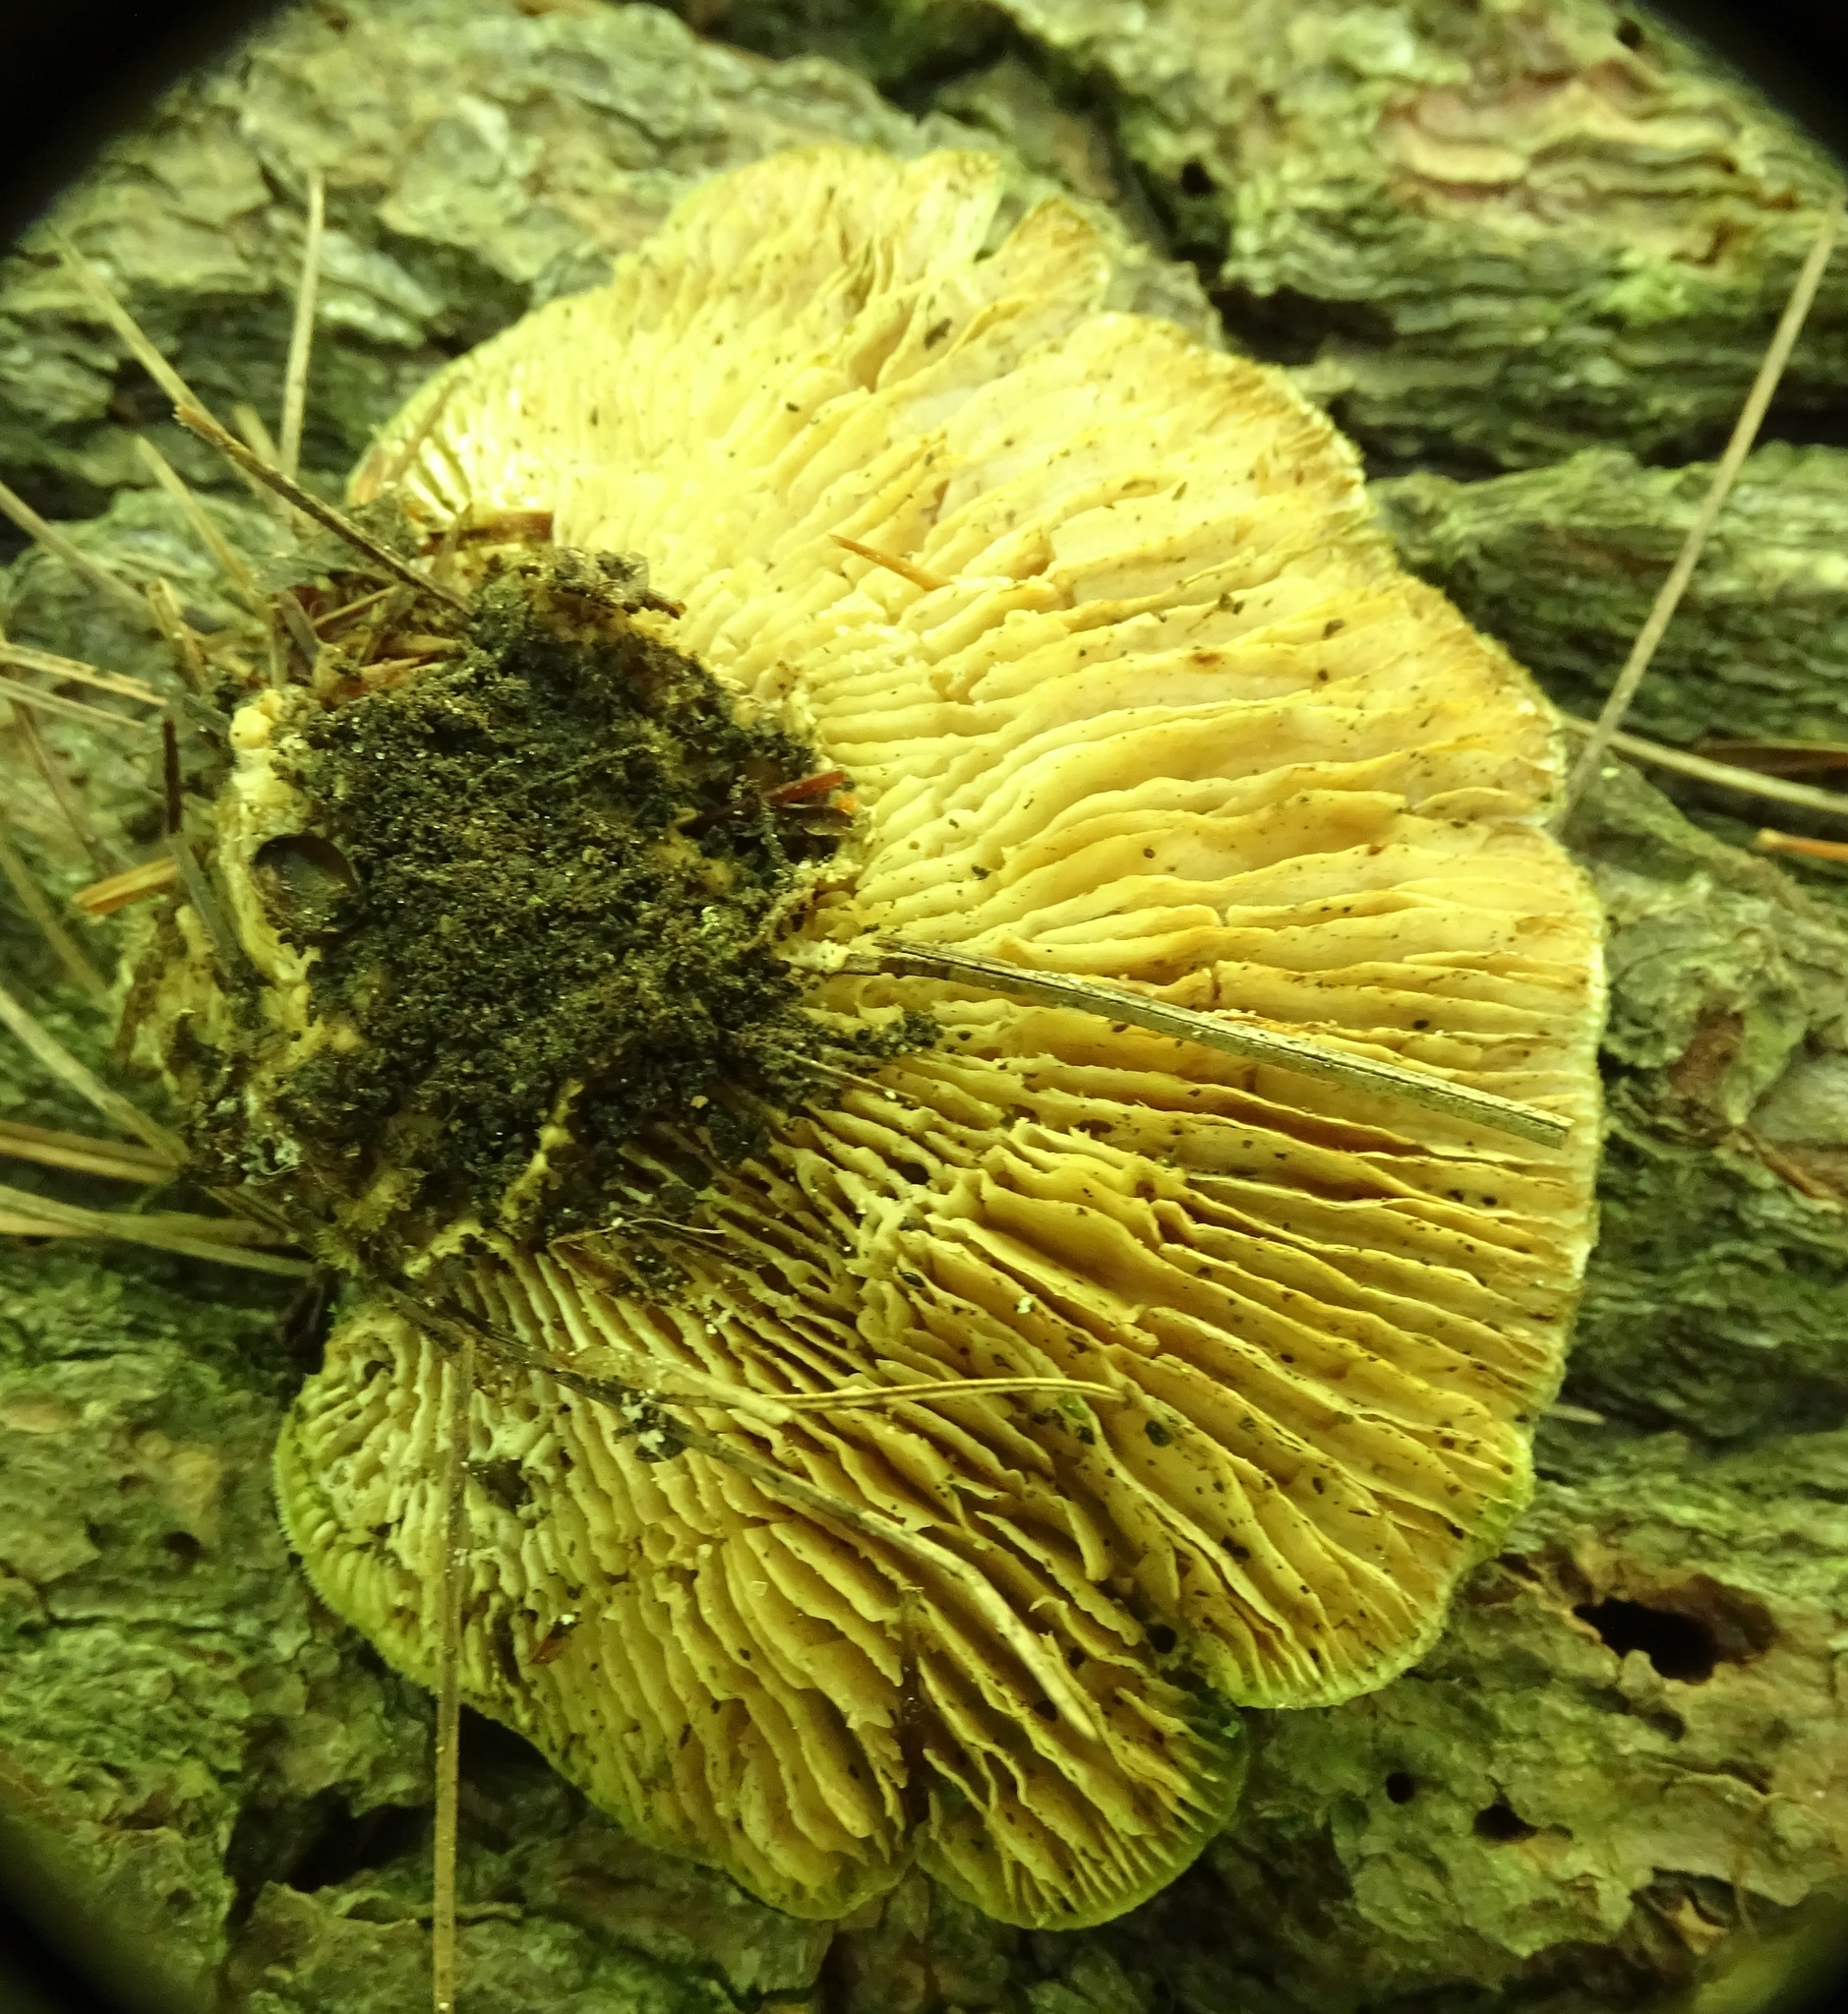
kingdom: Fungi
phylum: Basidiomycota
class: Agaricomycetes
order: Polyporales
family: Polyporaceae
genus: Lenzites
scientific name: Lenzites betulinus
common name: Birch mazegill
